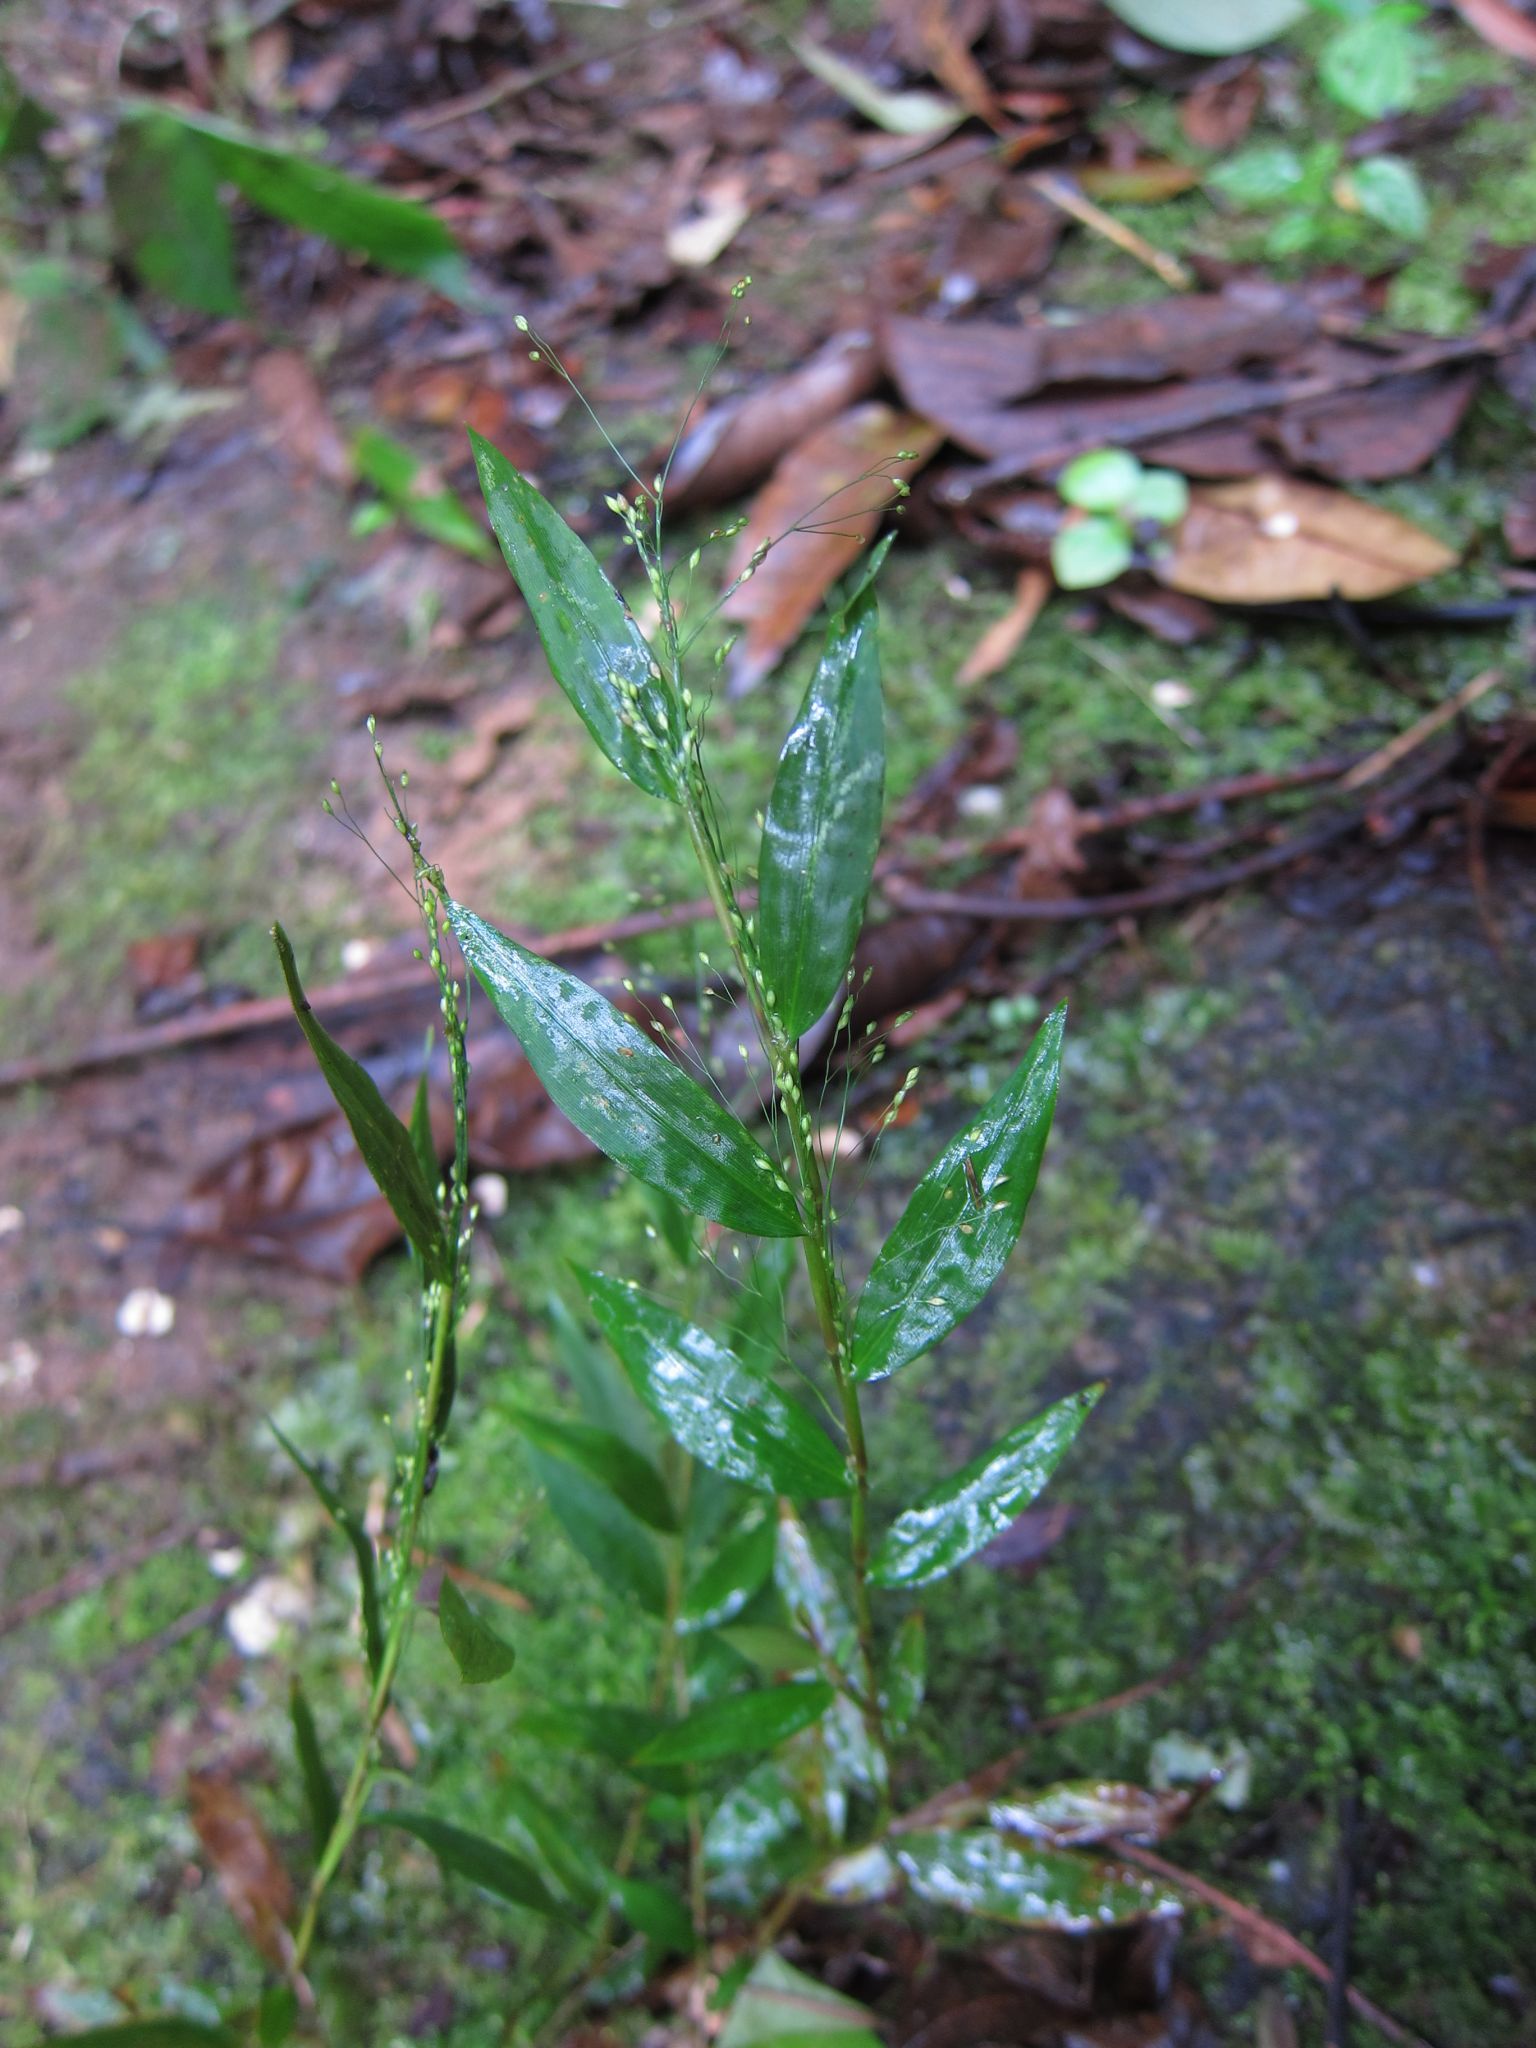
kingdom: Plantae
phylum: Tracheophyta
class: Liliopsida
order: Poales
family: Poaceae
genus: Panicum
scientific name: Panicum mitopus
